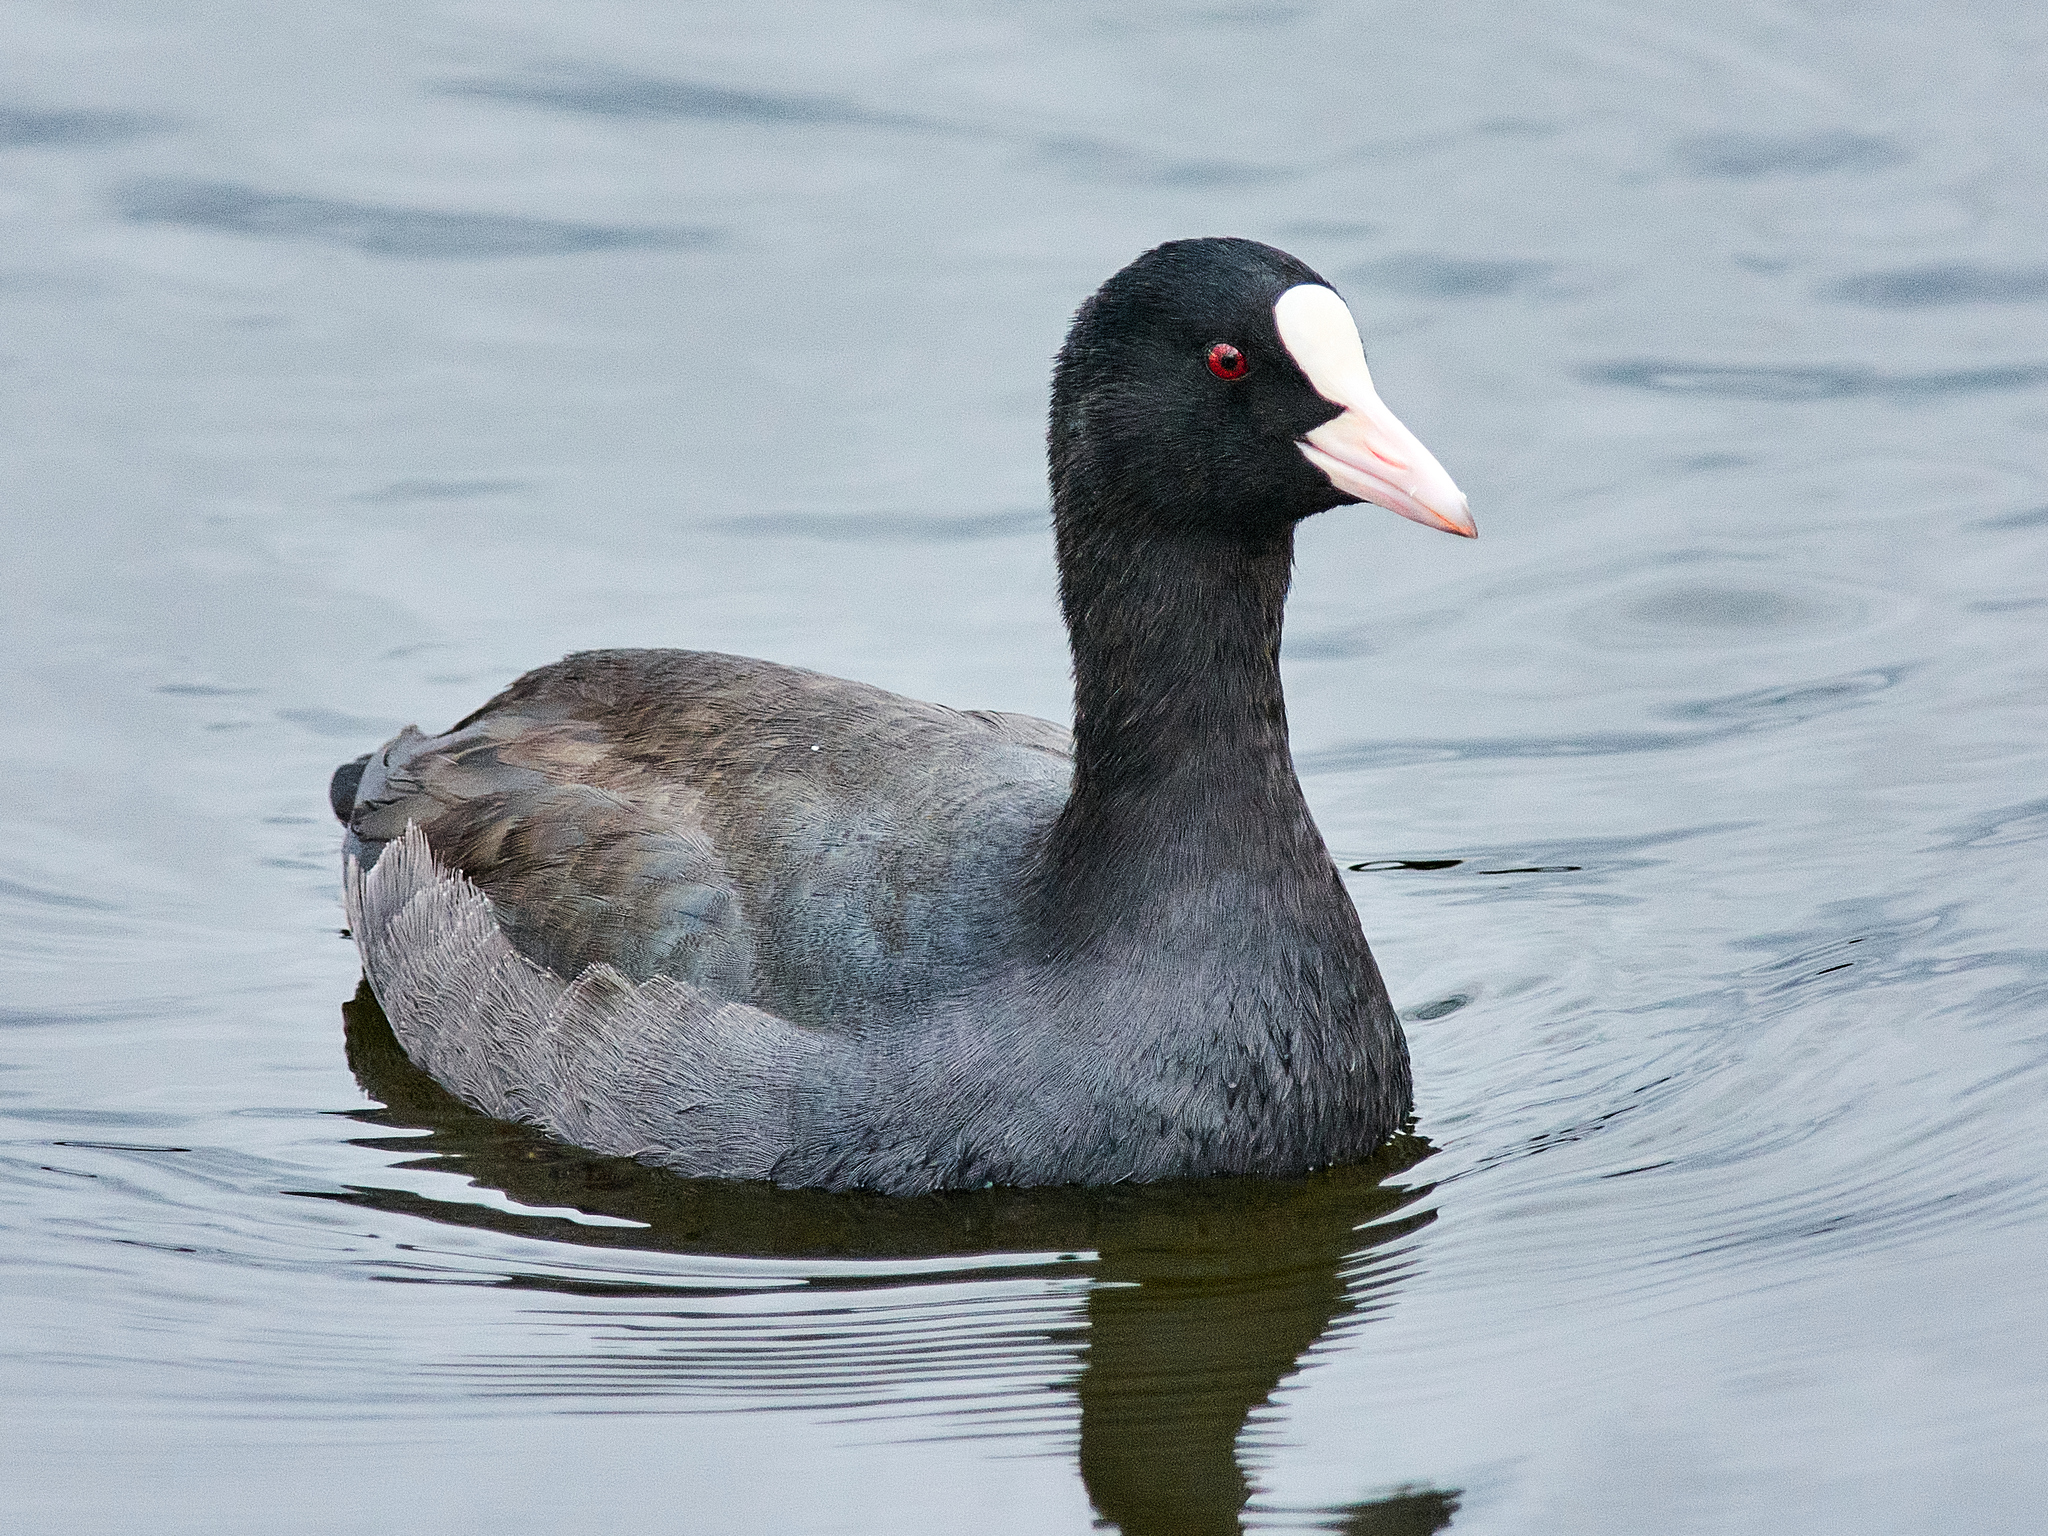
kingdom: Animalia
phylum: Chordata
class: Aves
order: Gruiformes
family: Rallidae
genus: Fulica
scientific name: Fulica atra
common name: Eurasian coot
